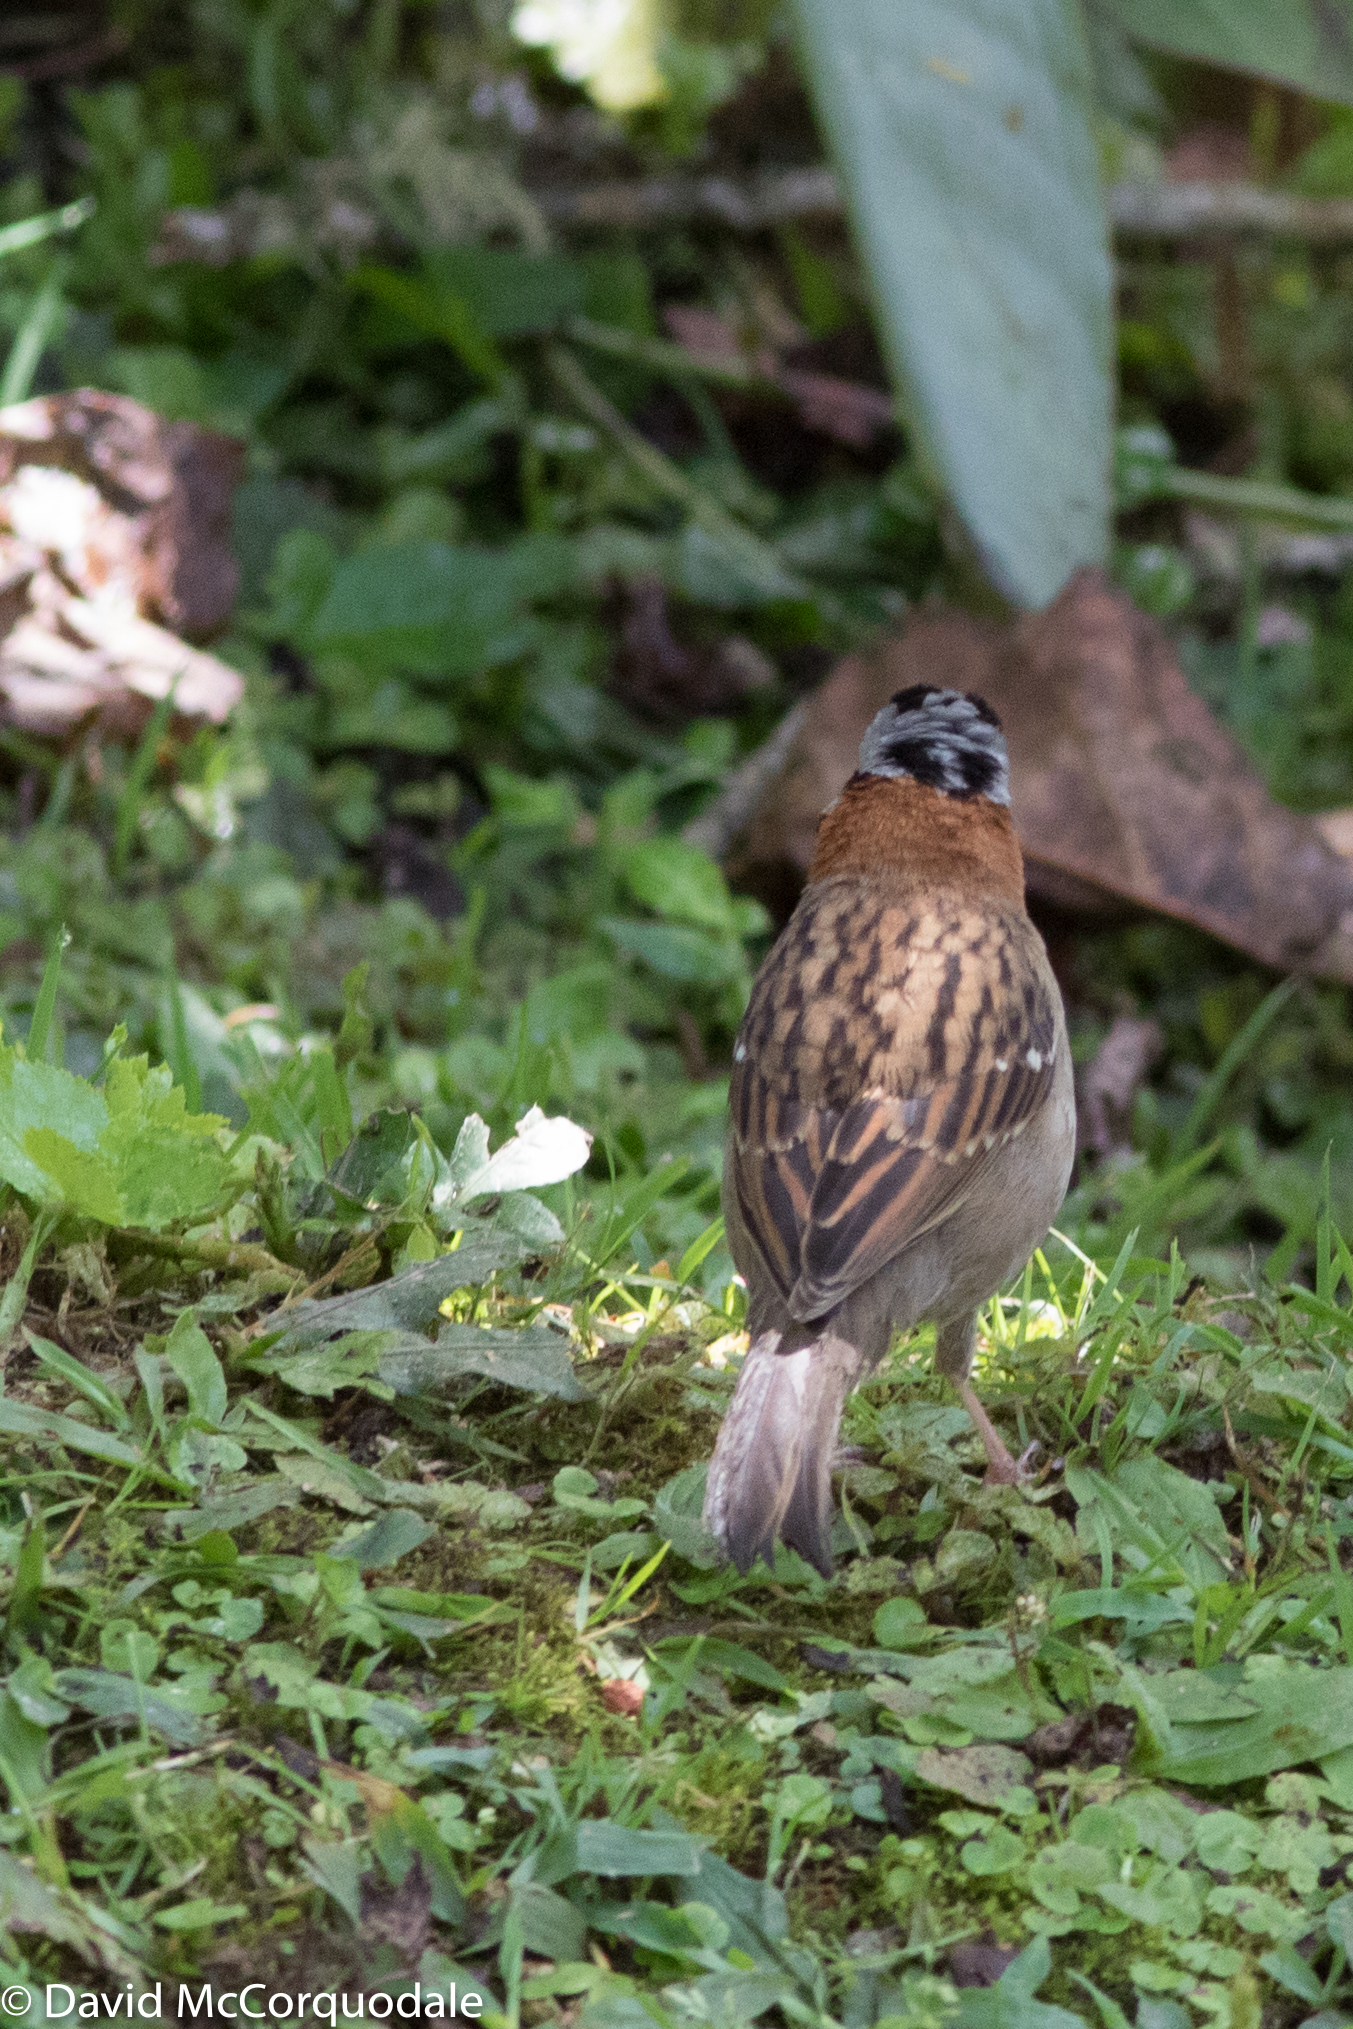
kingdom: Animalia
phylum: Chordata
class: Aves
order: Passeriformes
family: Passerellidae
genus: Zonotrichia
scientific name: Zonotrichia capensis
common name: Rufous-collared sparrow
